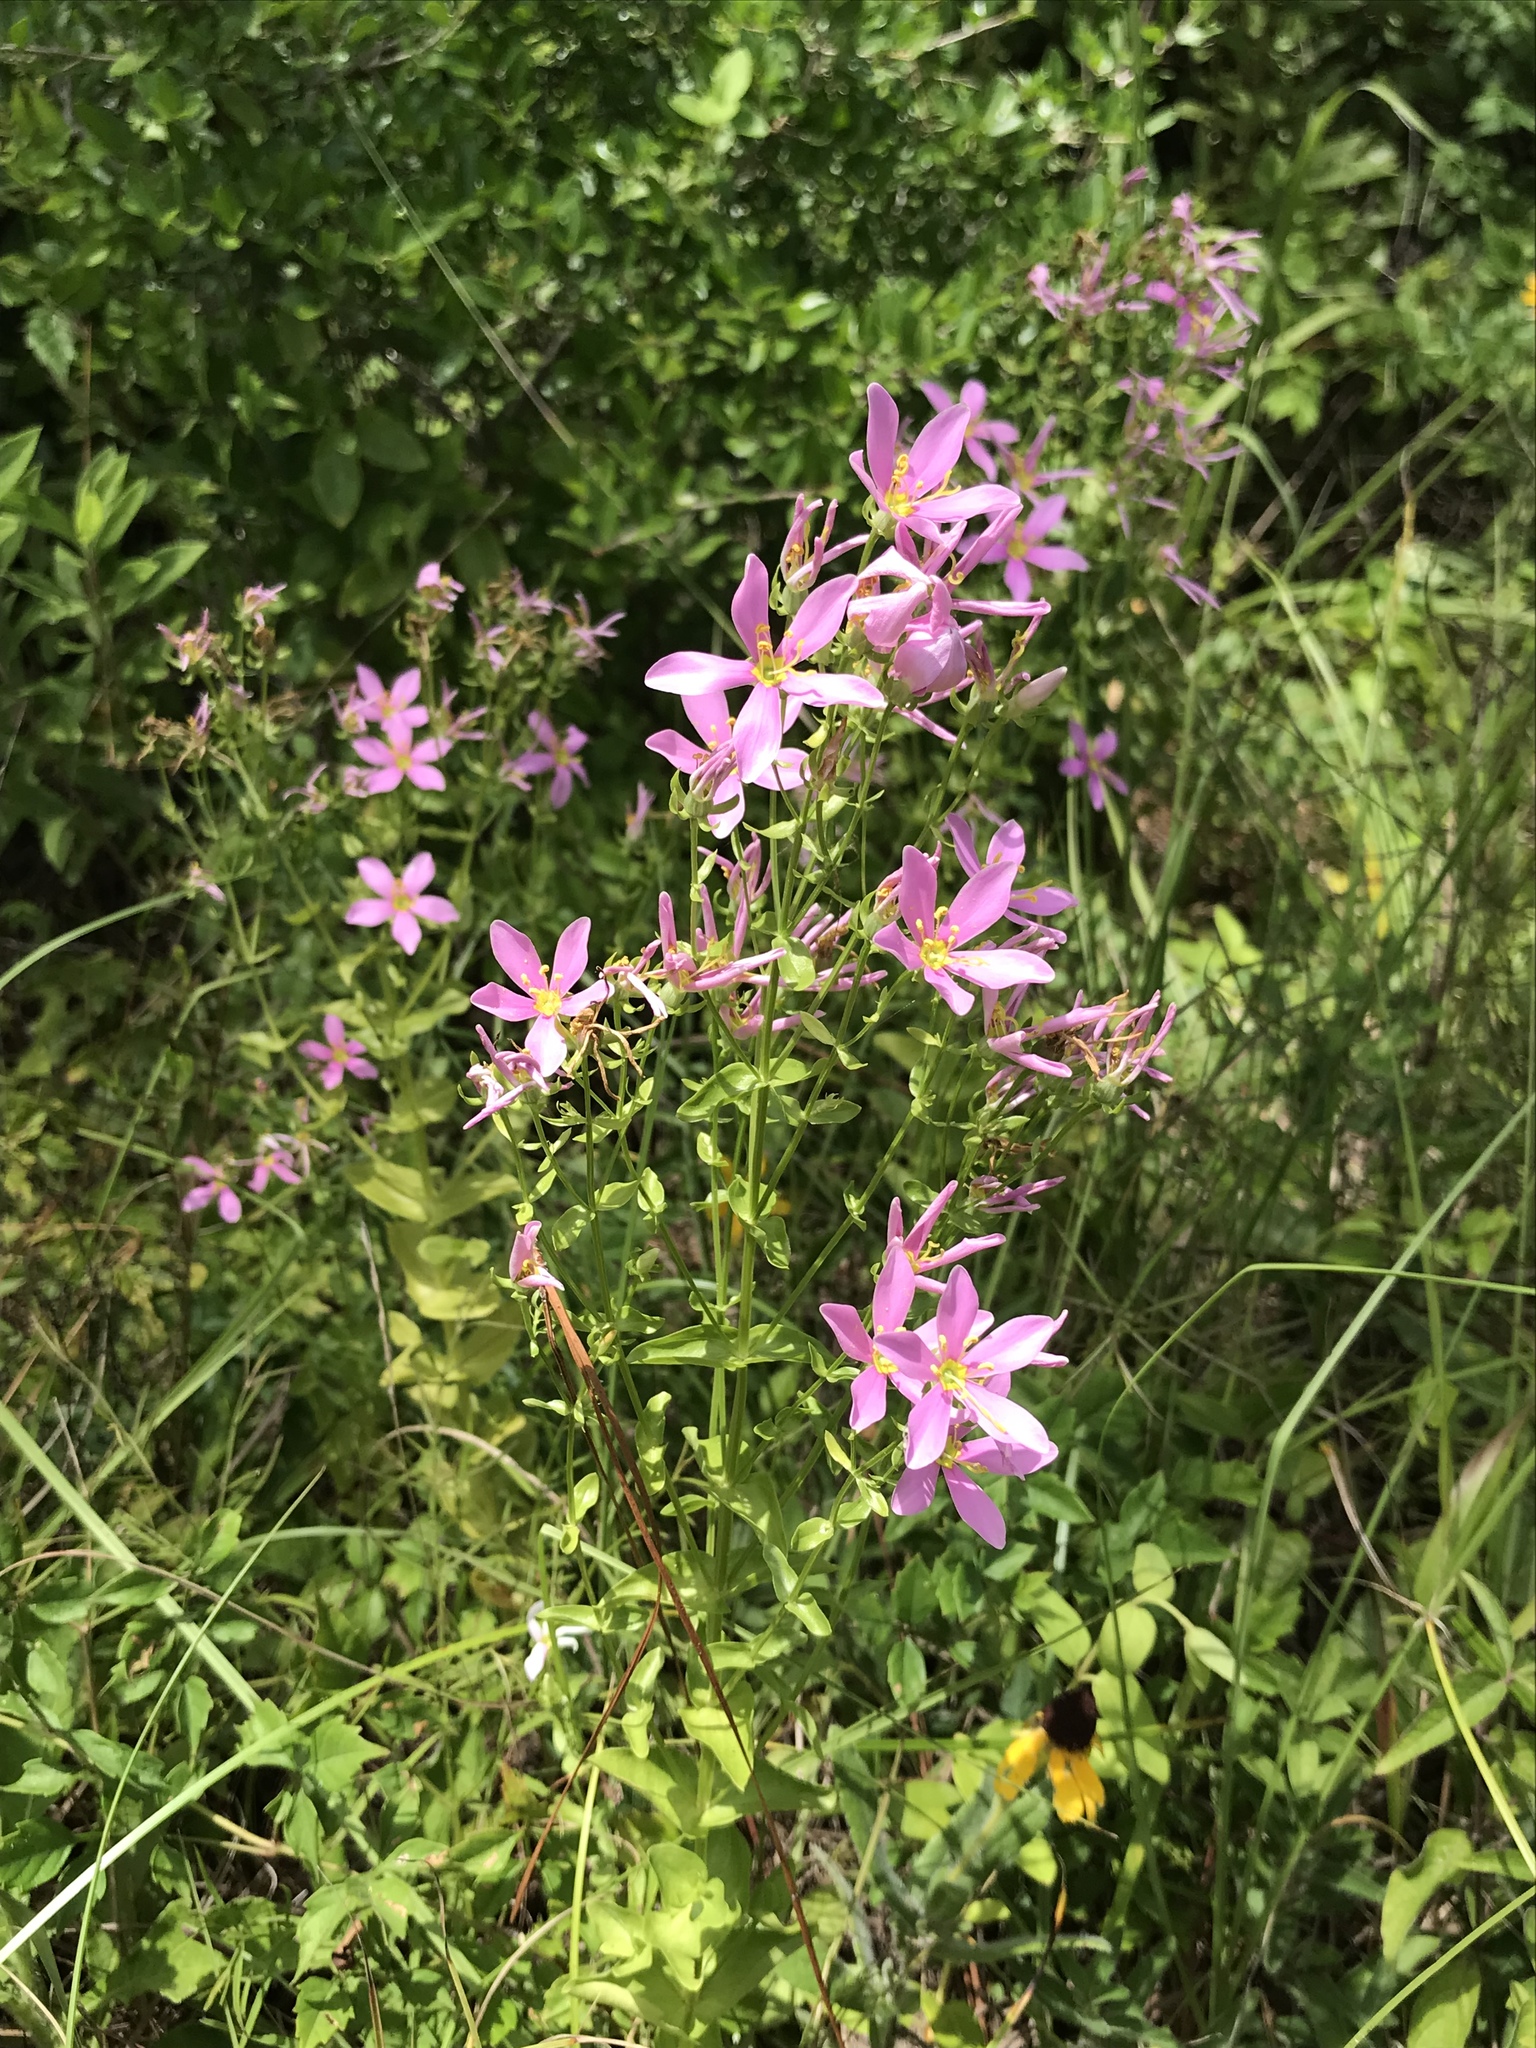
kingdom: Plantae
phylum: Tracheophyta
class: Magnoliopsida
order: Gentianales
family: Gentianaceae
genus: Sabatia
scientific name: Sabatia angularis
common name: Rose-pink
